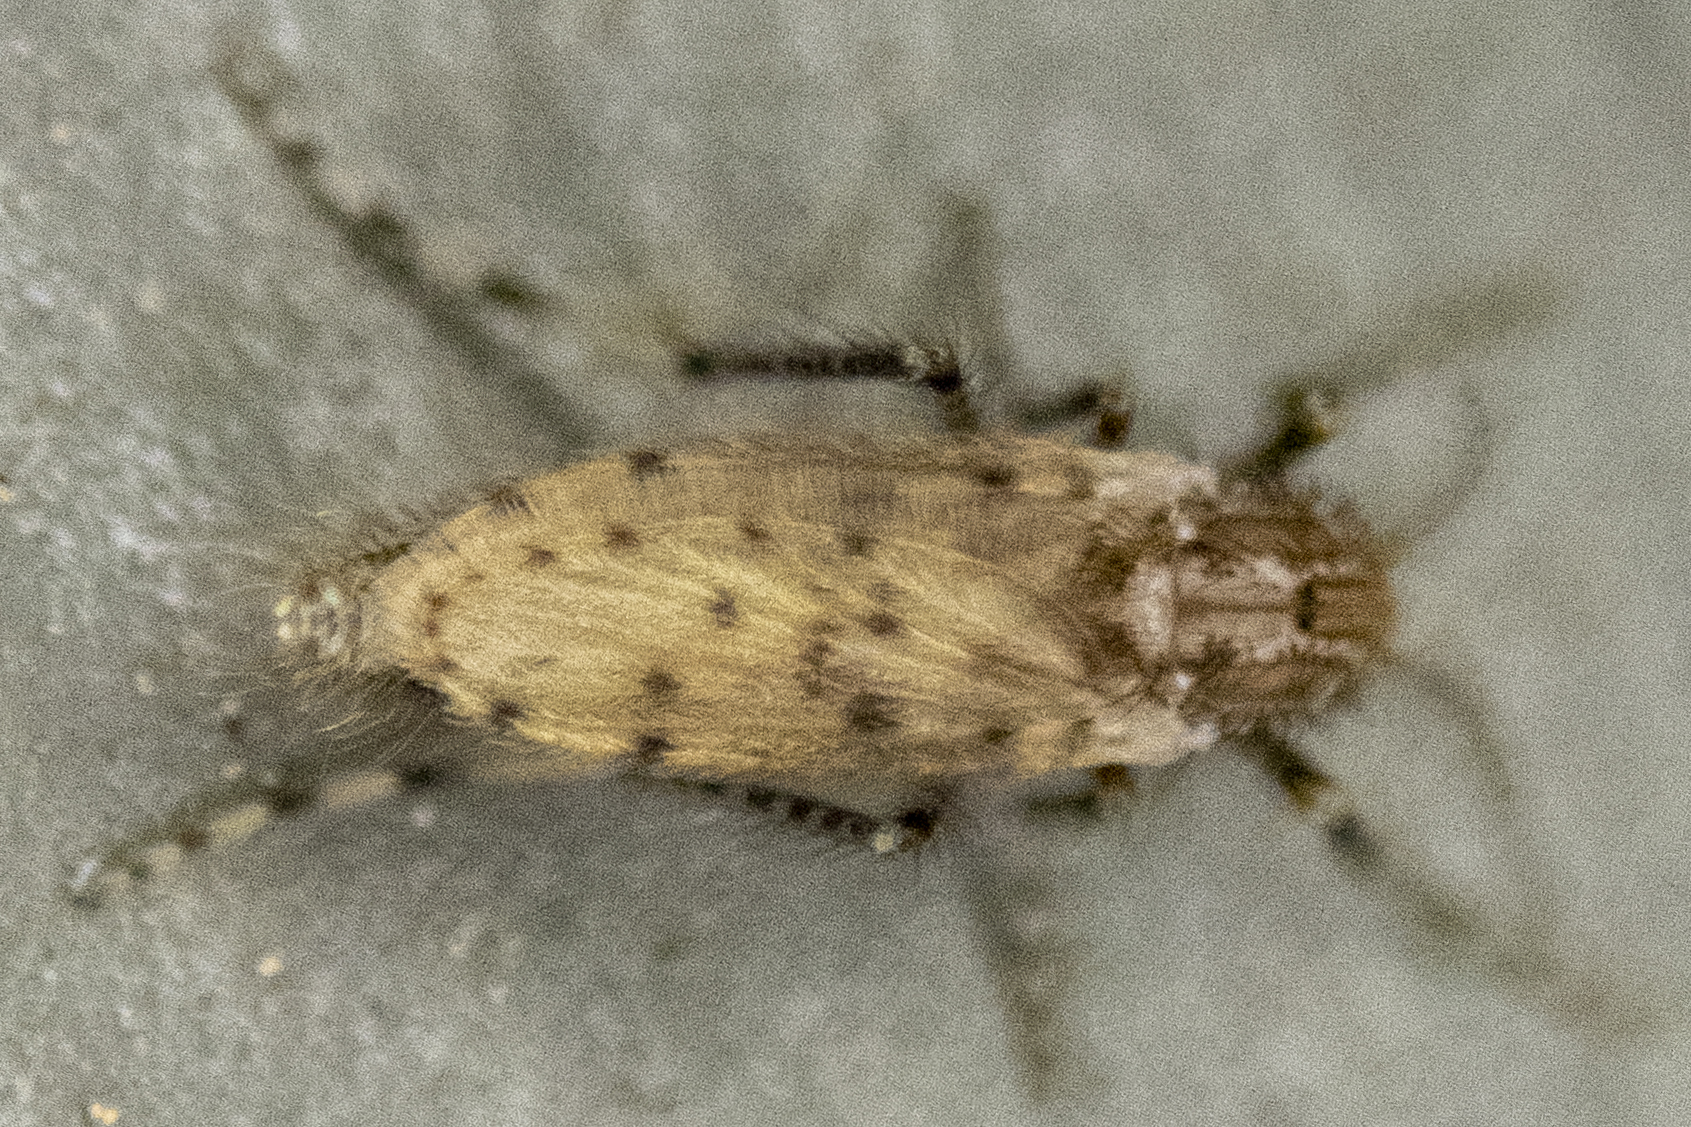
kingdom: Animalia
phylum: Arthropoda
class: Insecta
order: Diptera
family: Chaoboridae
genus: Chaoborus
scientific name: Chaoborus punctipennis
